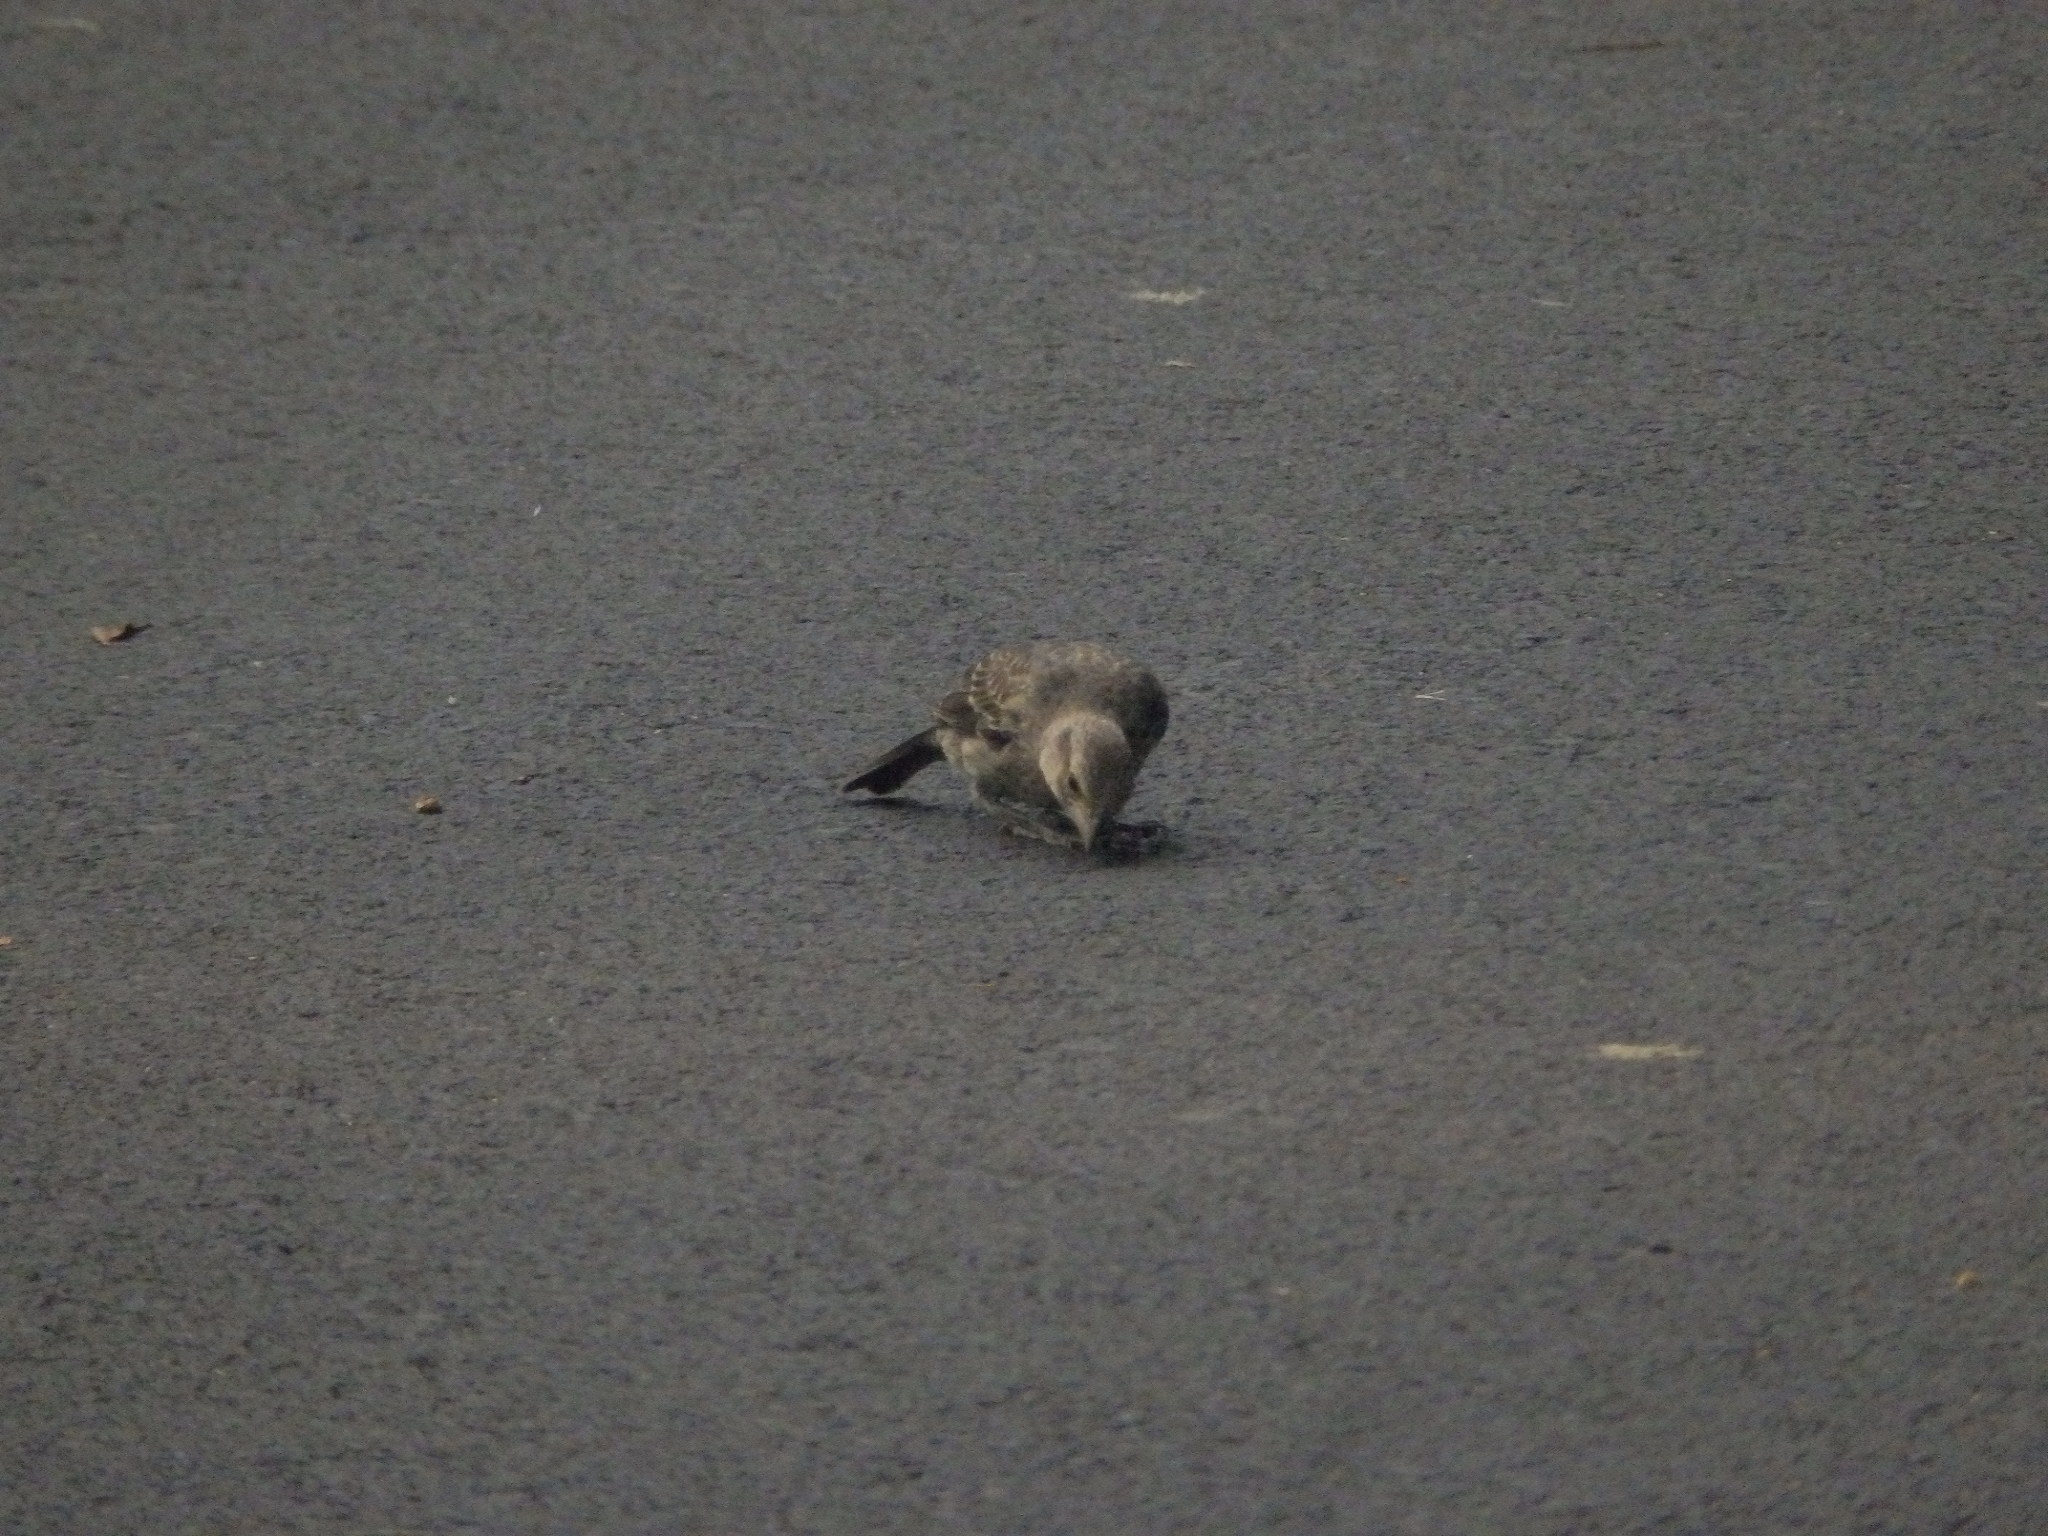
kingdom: Animalia
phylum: Chordata
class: Aves
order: Passeriformes
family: Icteridae
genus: Molothrus
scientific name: Molothrus ater
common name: Brown-headed cowbird
